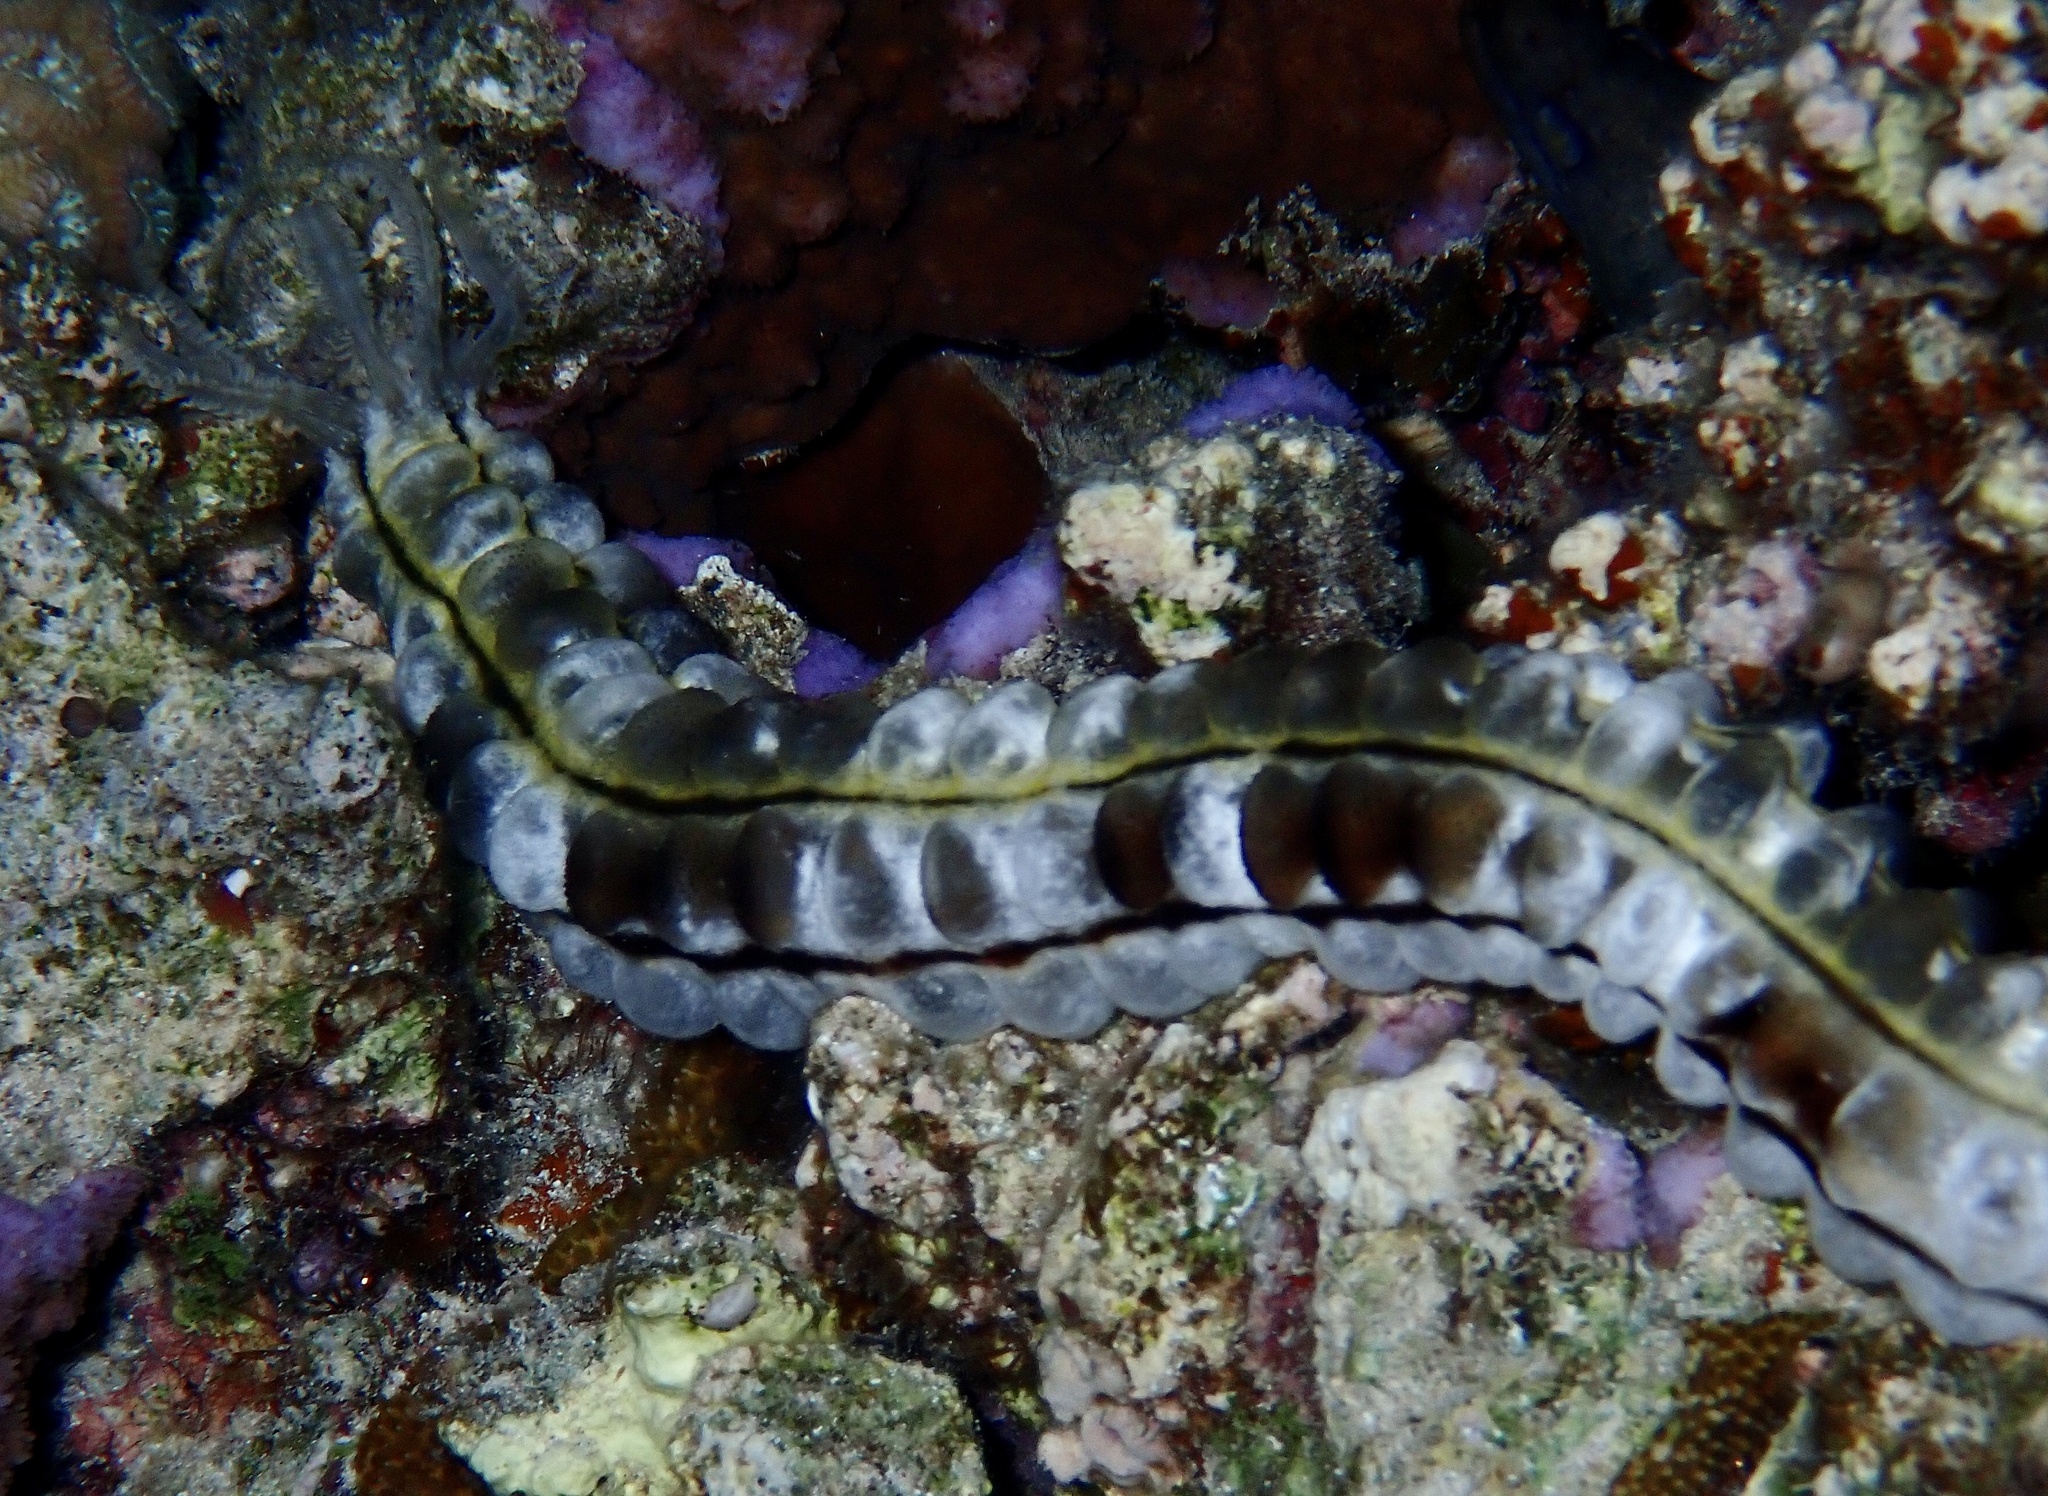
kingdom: Animalia
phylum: Echinodermata
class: Holothuroidea
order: Apodida
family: Synaptidae
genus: Euapta
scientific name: Euapta godeffroyi
